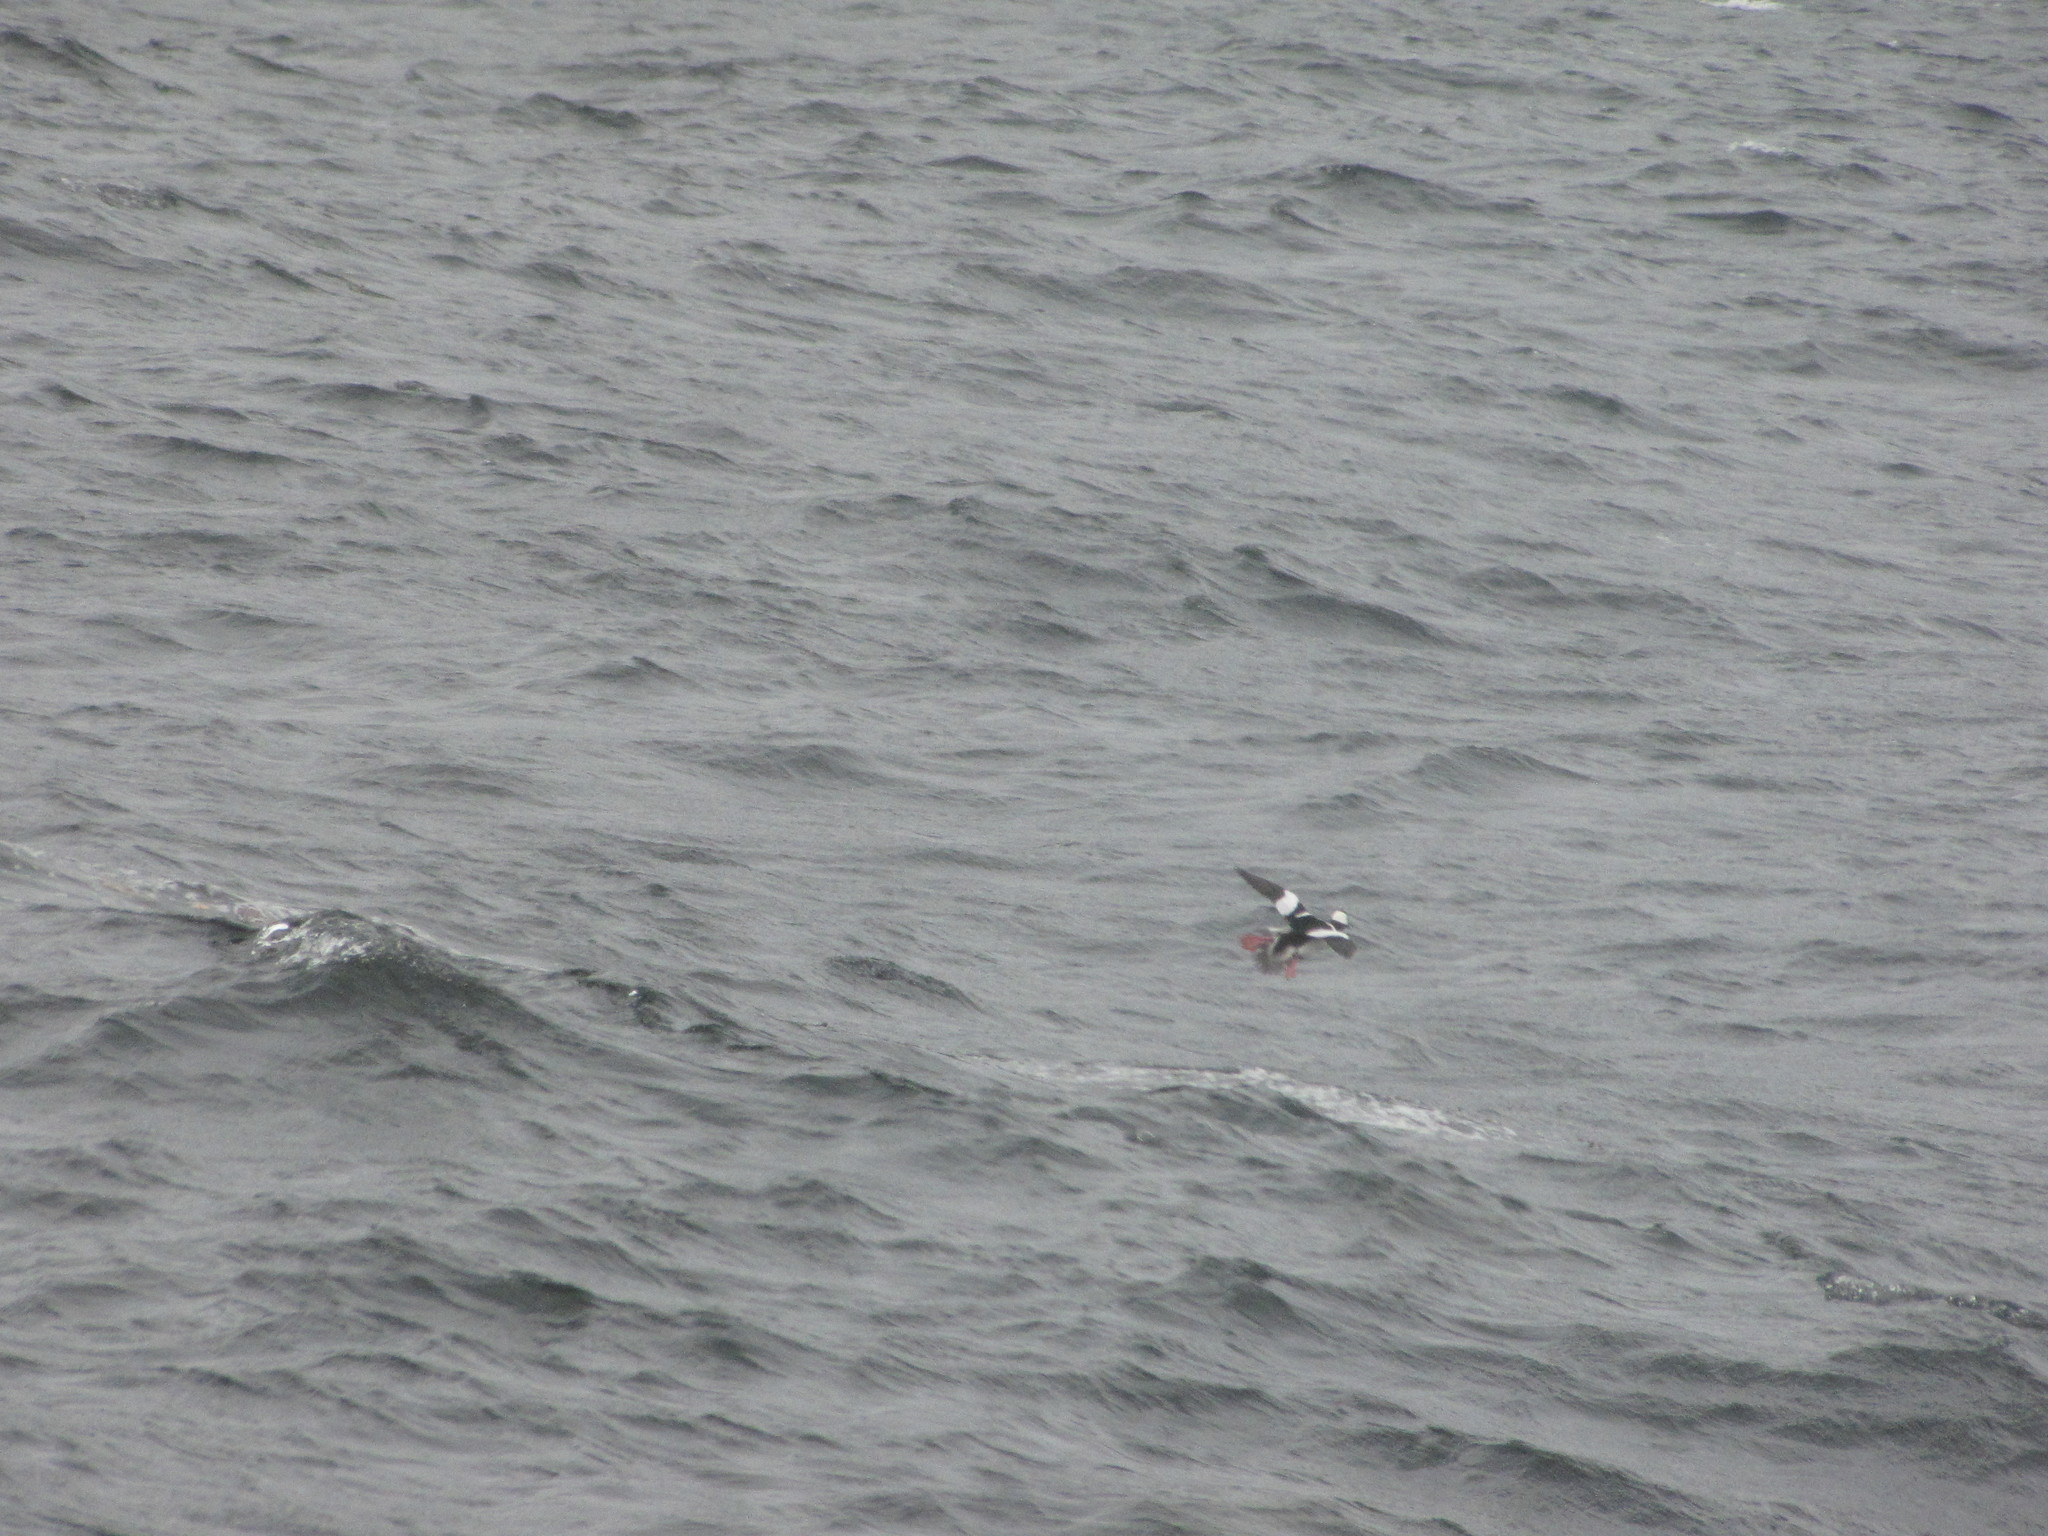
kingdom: Animalia
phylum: Chordata
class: Aves
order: Anseriformes
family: Anatidae
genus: Bucephala
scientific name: Bucephala albeola
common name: Bufflehead
